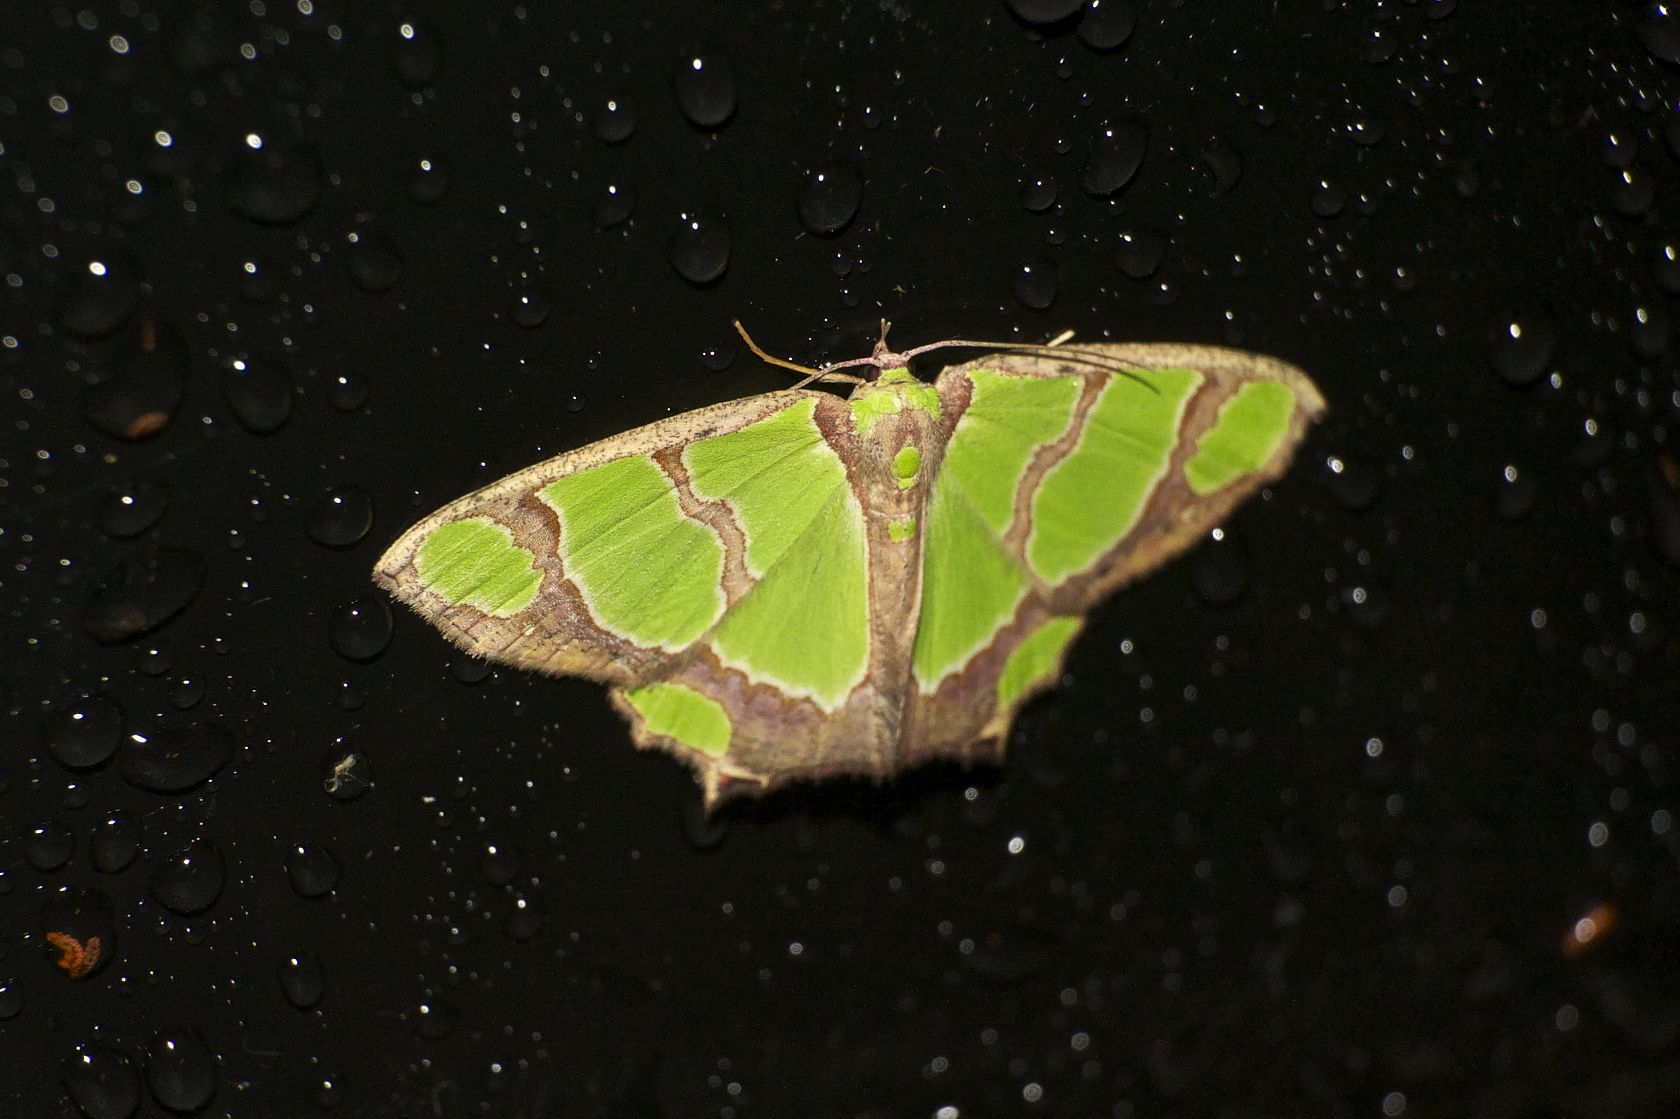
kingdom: Animalia
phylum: Arthropoda
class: Insecta
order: Lepidoptera
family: Geometridae
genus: Agathia
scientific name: Agathia carissima
